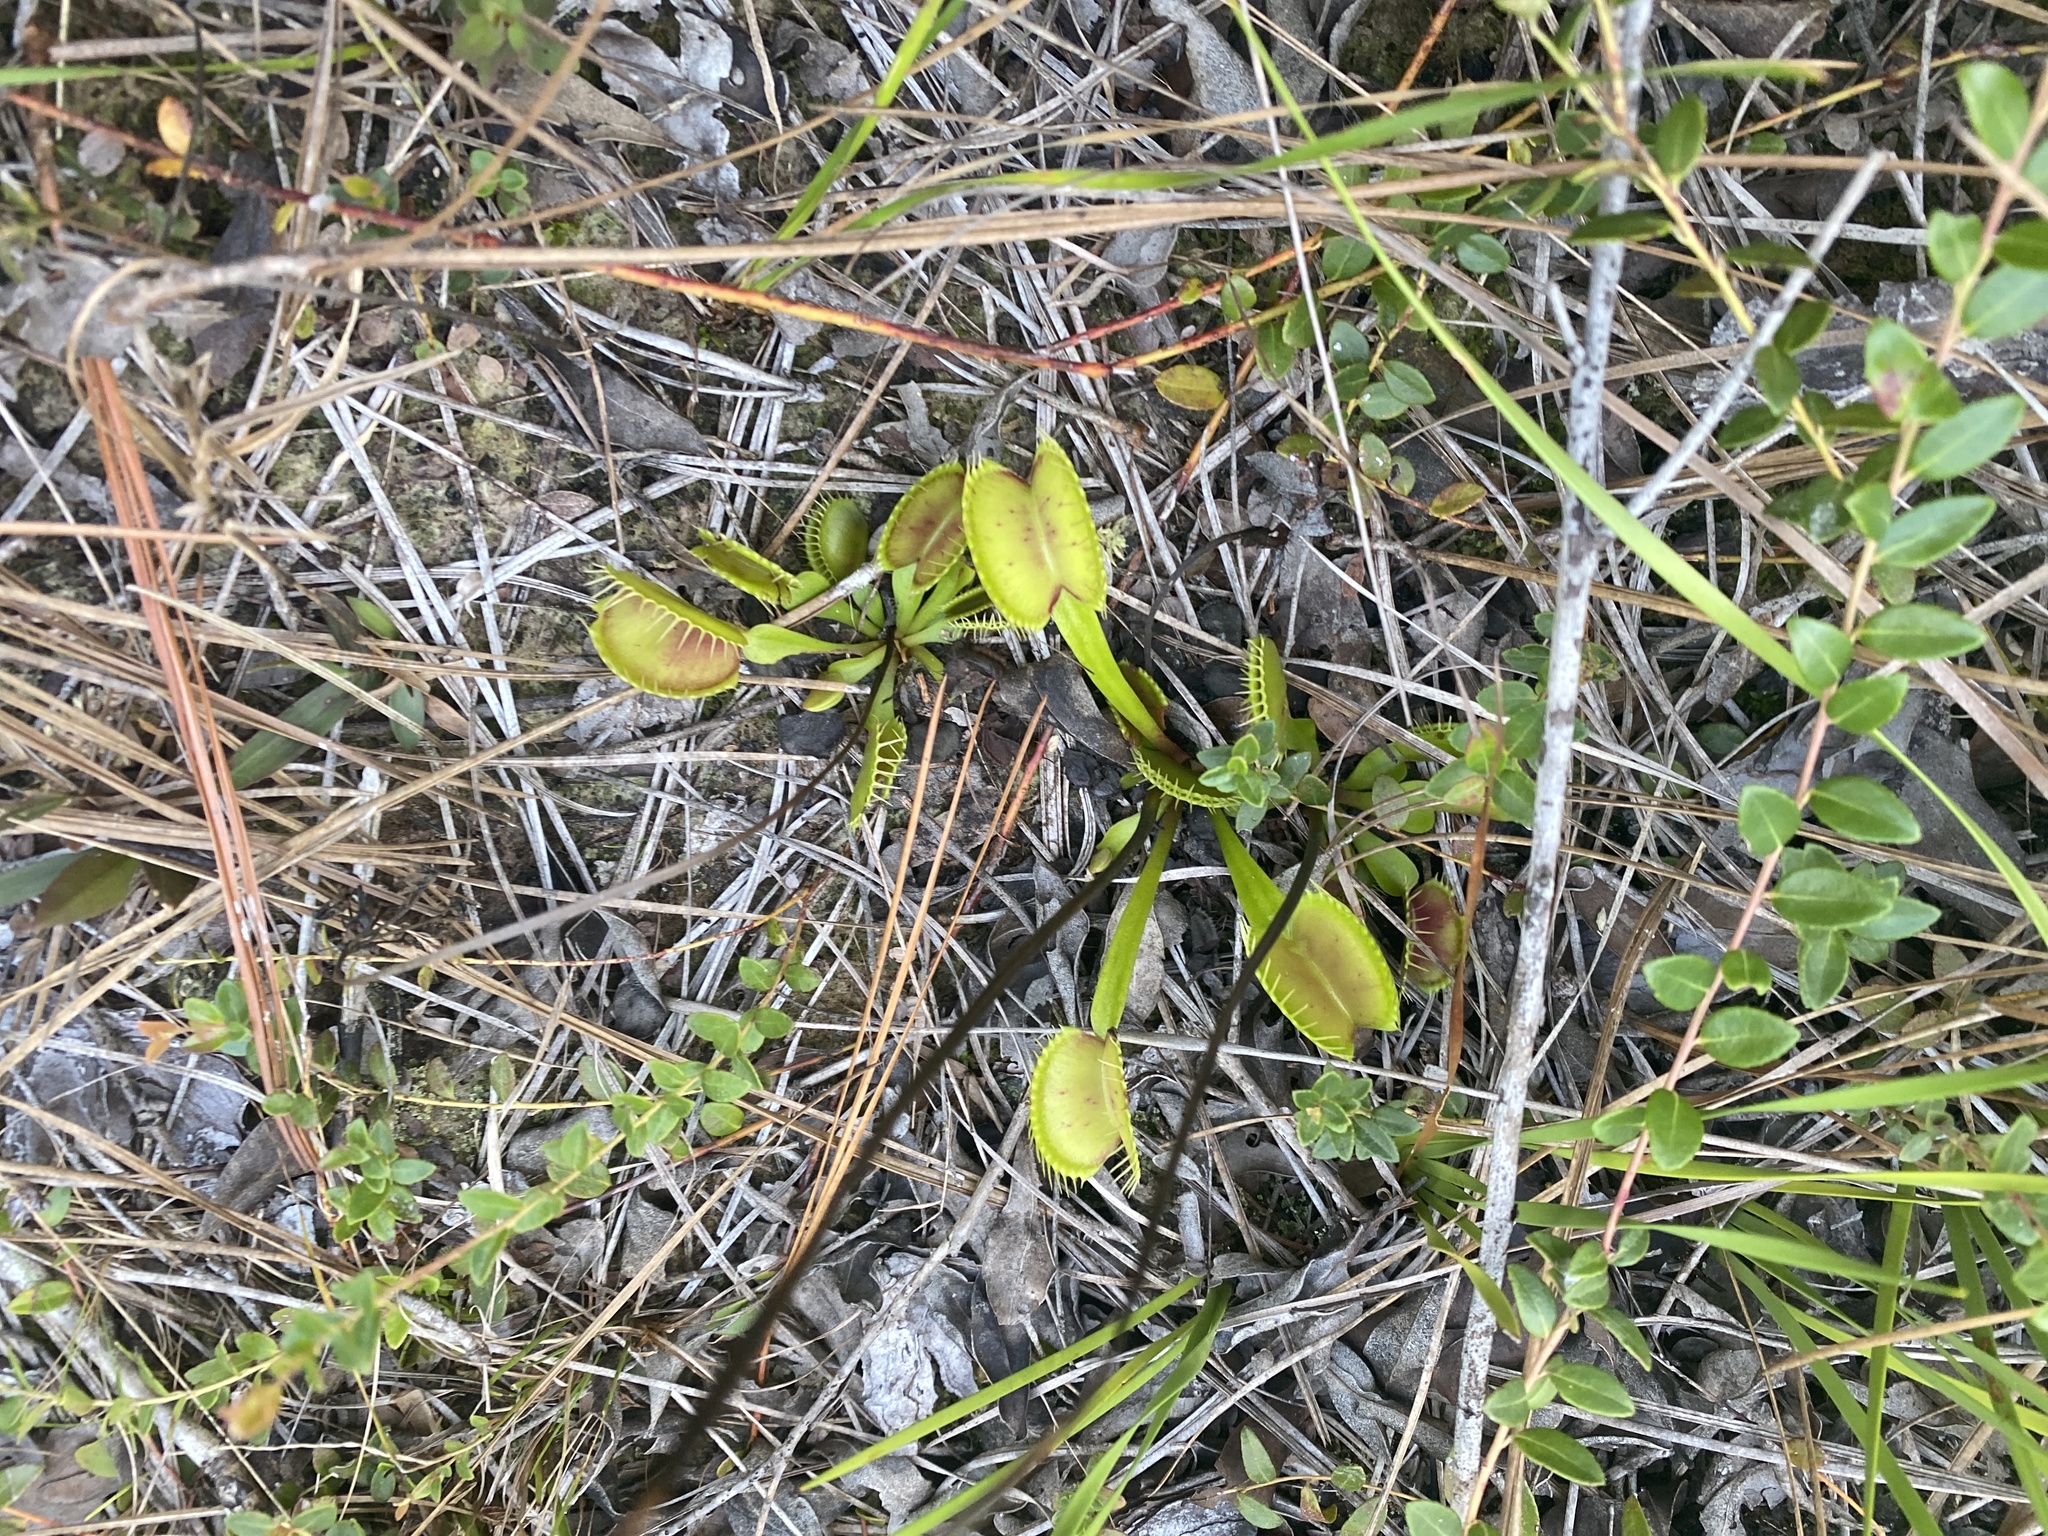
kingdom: Plantae
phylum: Tracheophyta
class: Magnoliopsida
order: Caryophyllales
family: Droseraceae
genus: Dionaea
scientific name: Dionaea muscipula
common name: Venus flytrap
